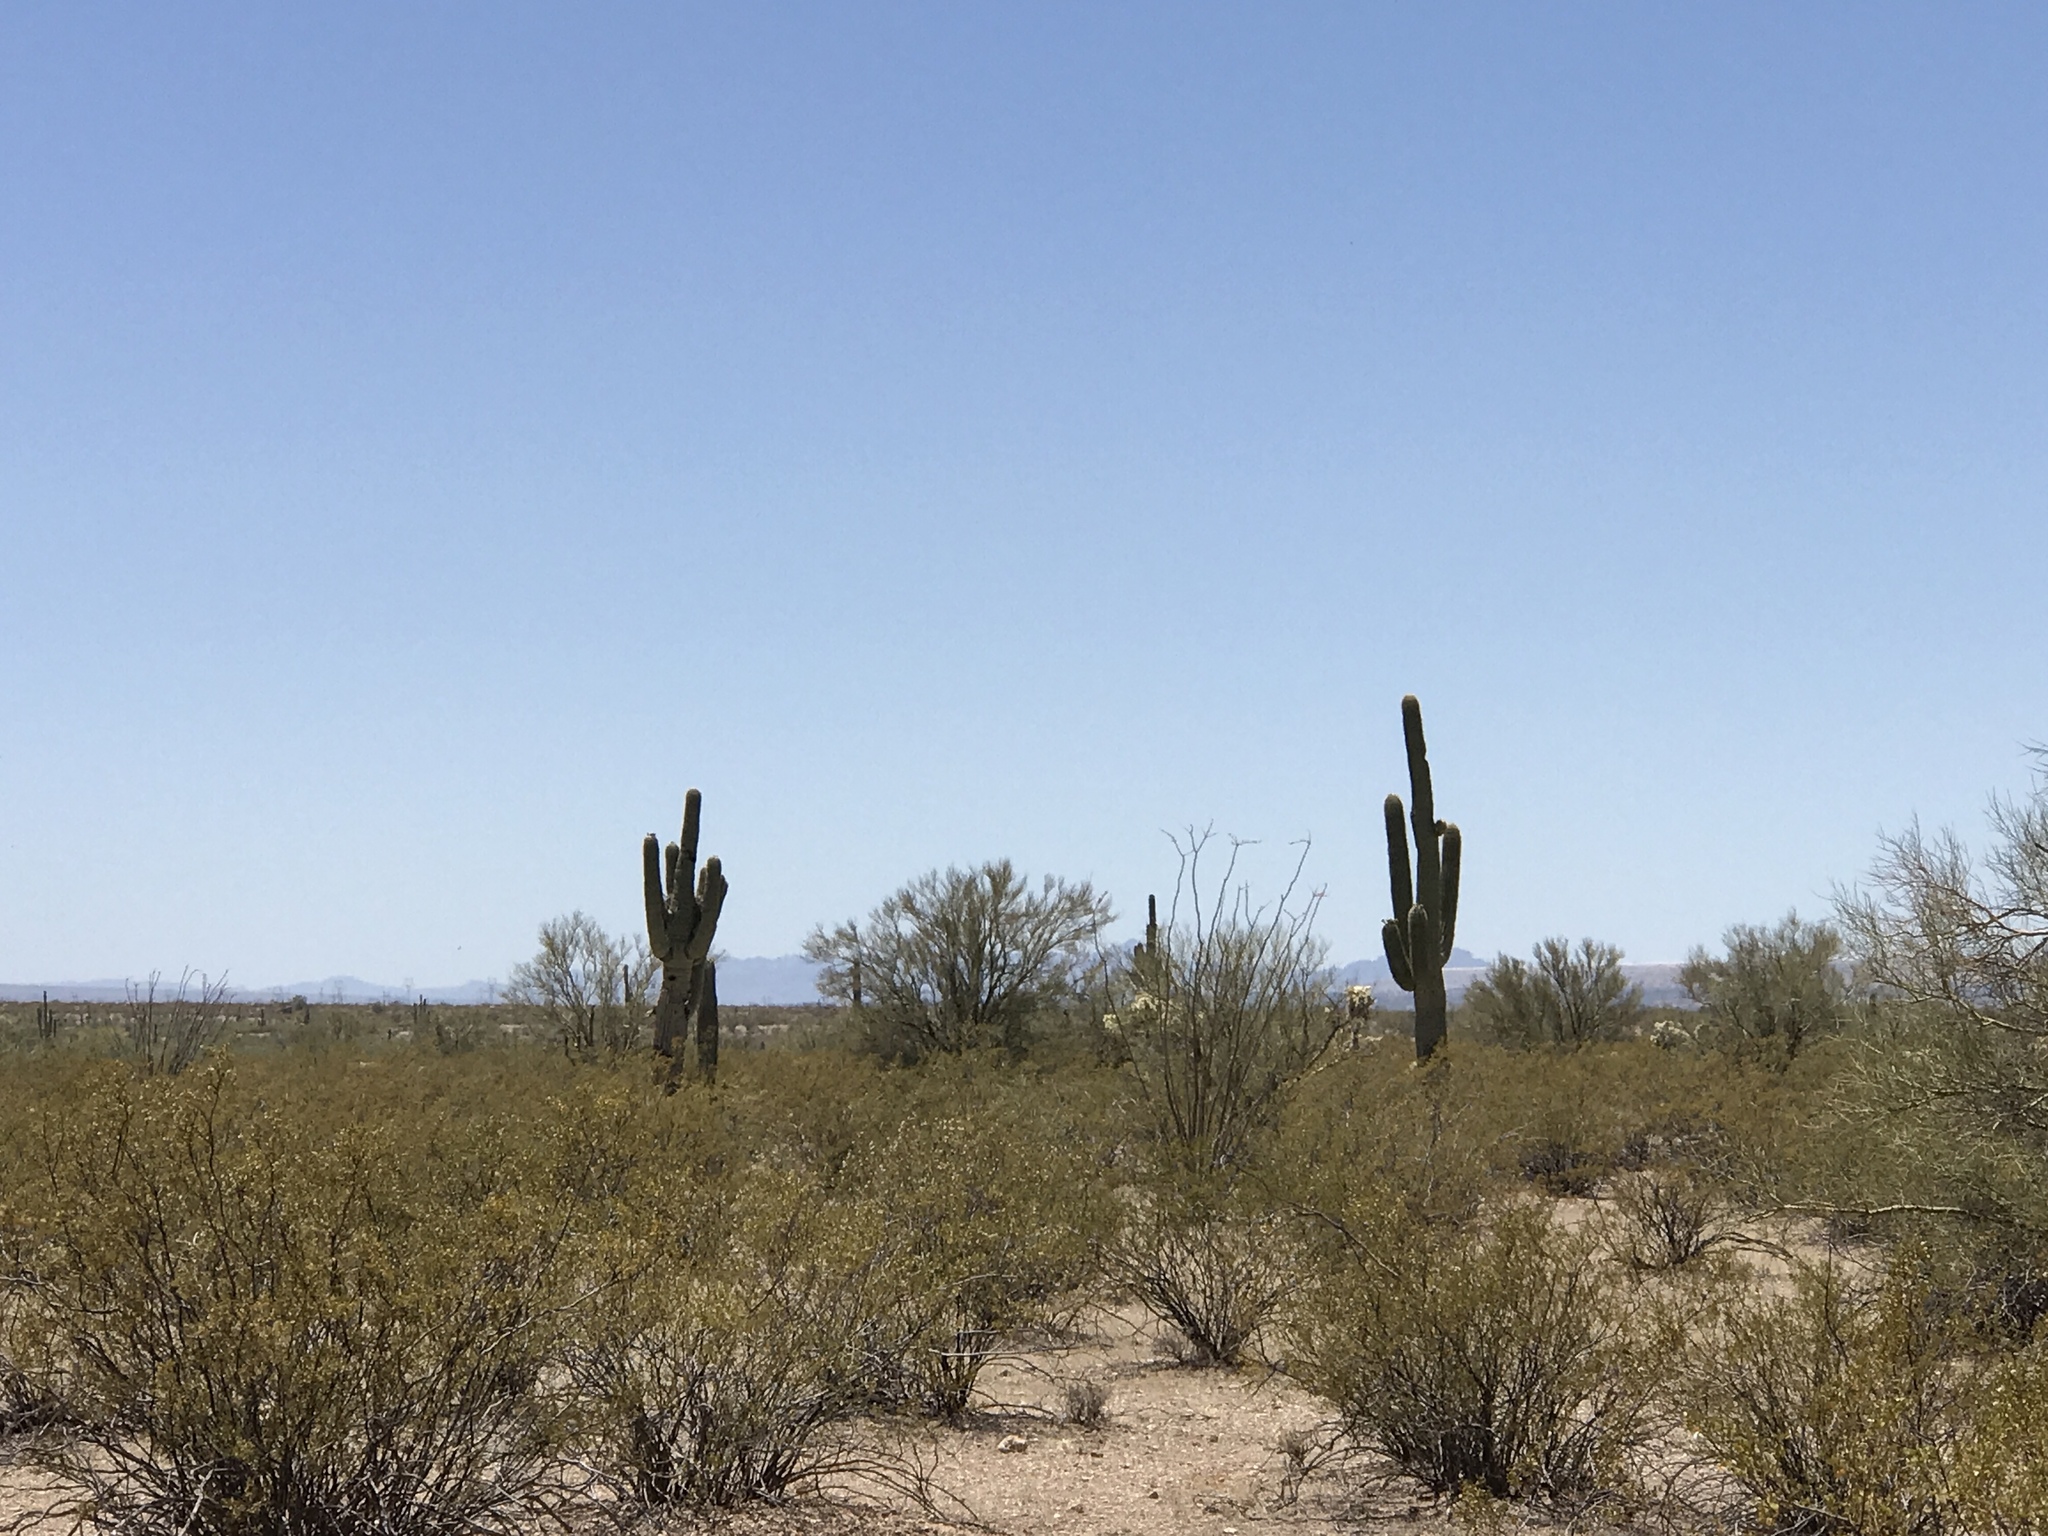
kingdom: Plantae
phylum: Tracheophyta
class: Magnoliopsida
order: Caryophyllales
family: Cactaceae
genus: Carnegiea
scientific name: Carnegiea gigantea
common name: Saguaro
